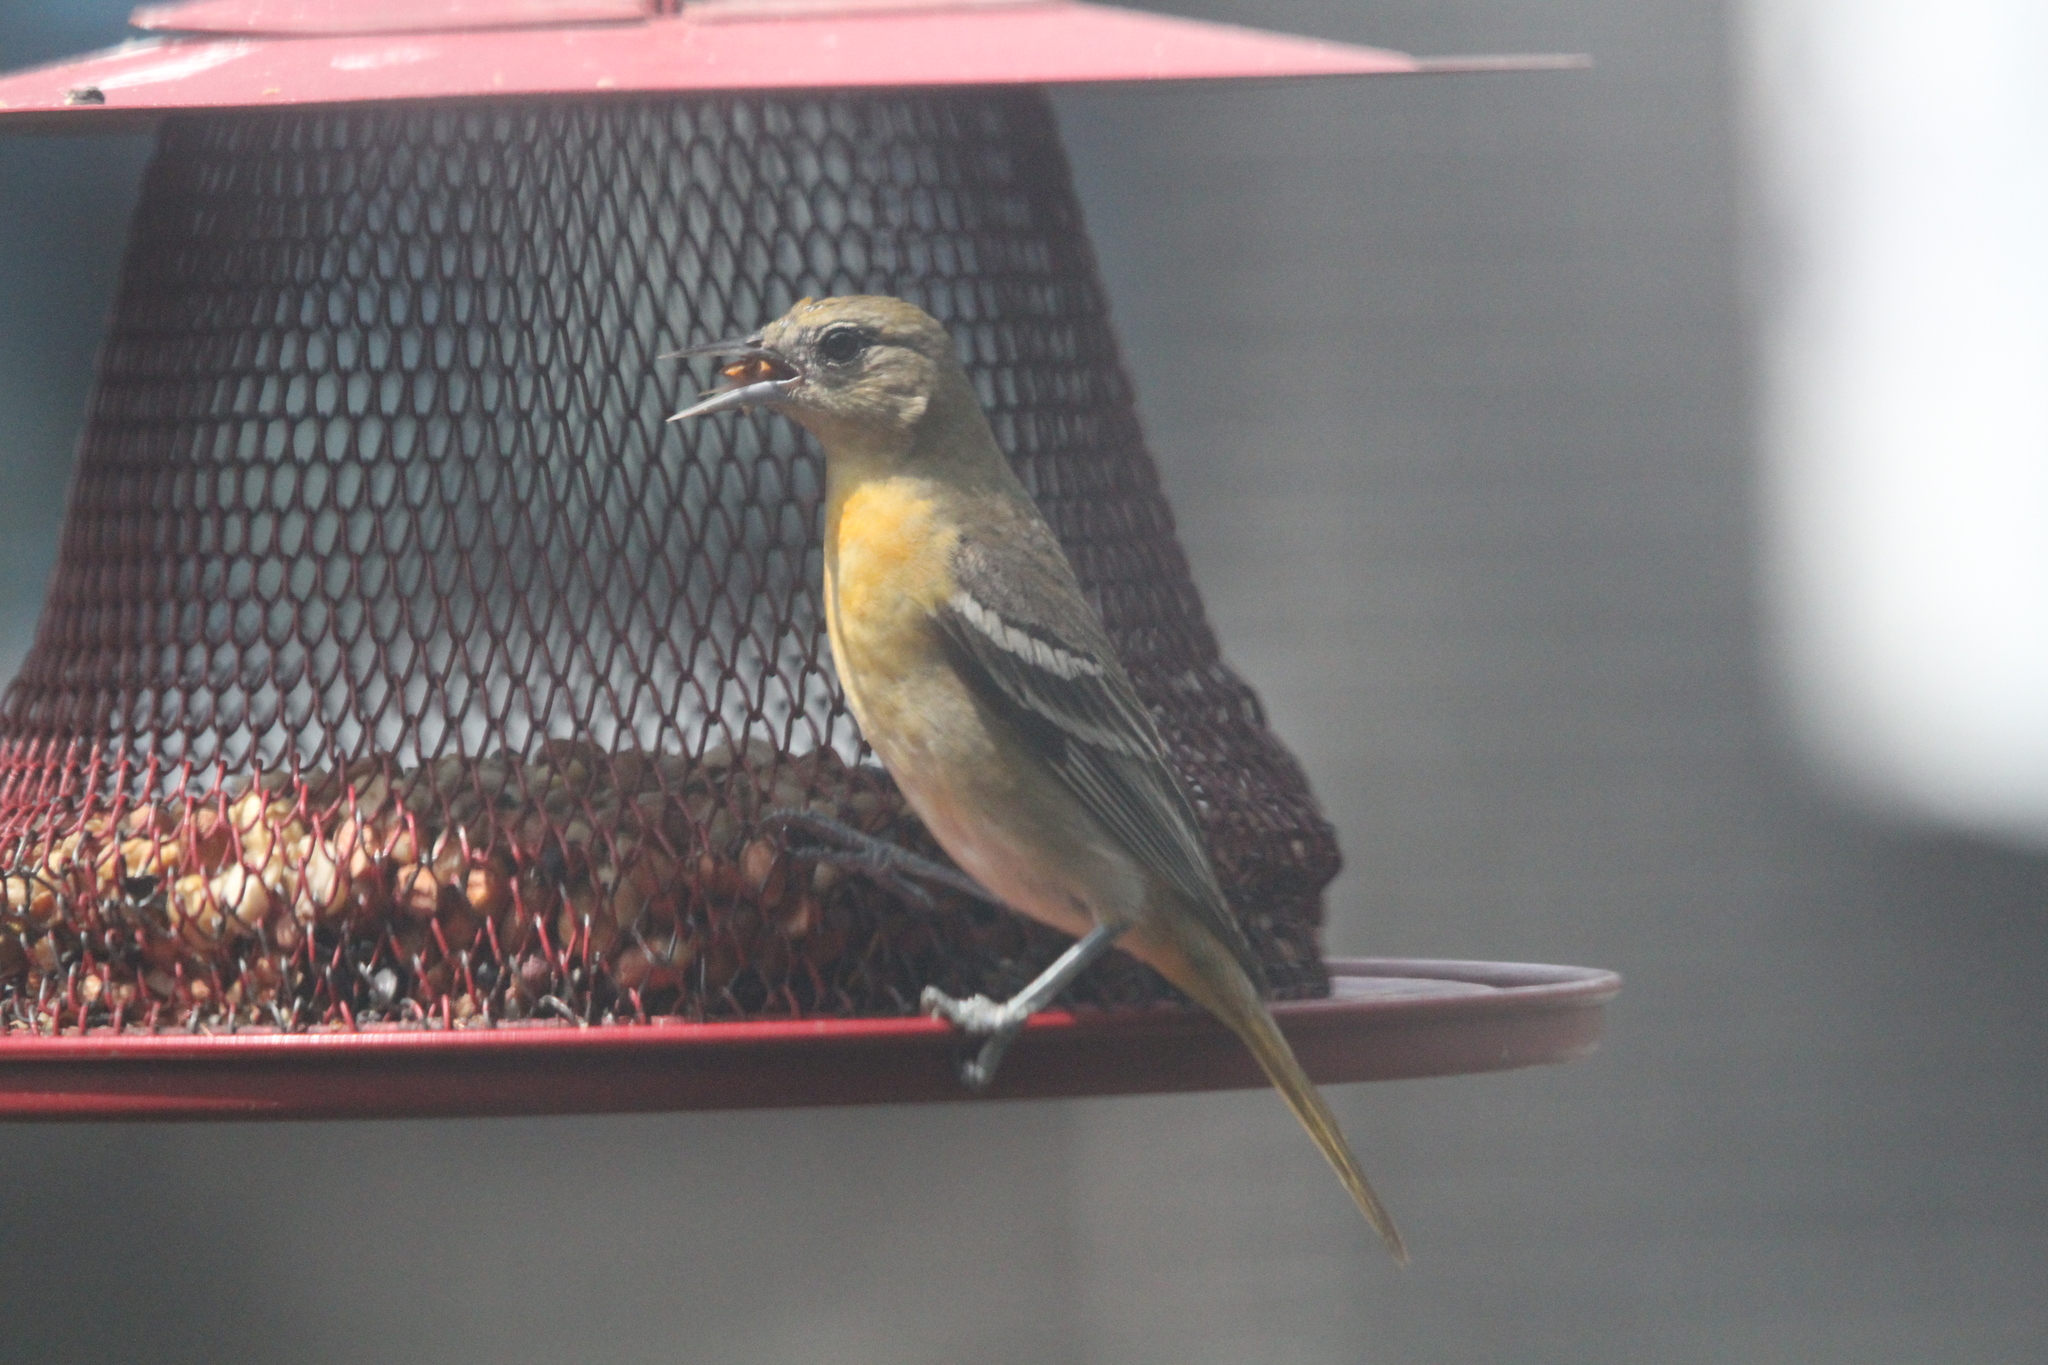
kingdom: Animalia
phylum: Chordata
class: Aves
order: Passeriformes
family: Icteridae
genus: Icterus
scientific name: Icterus galbula
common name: Baltimore oriole
